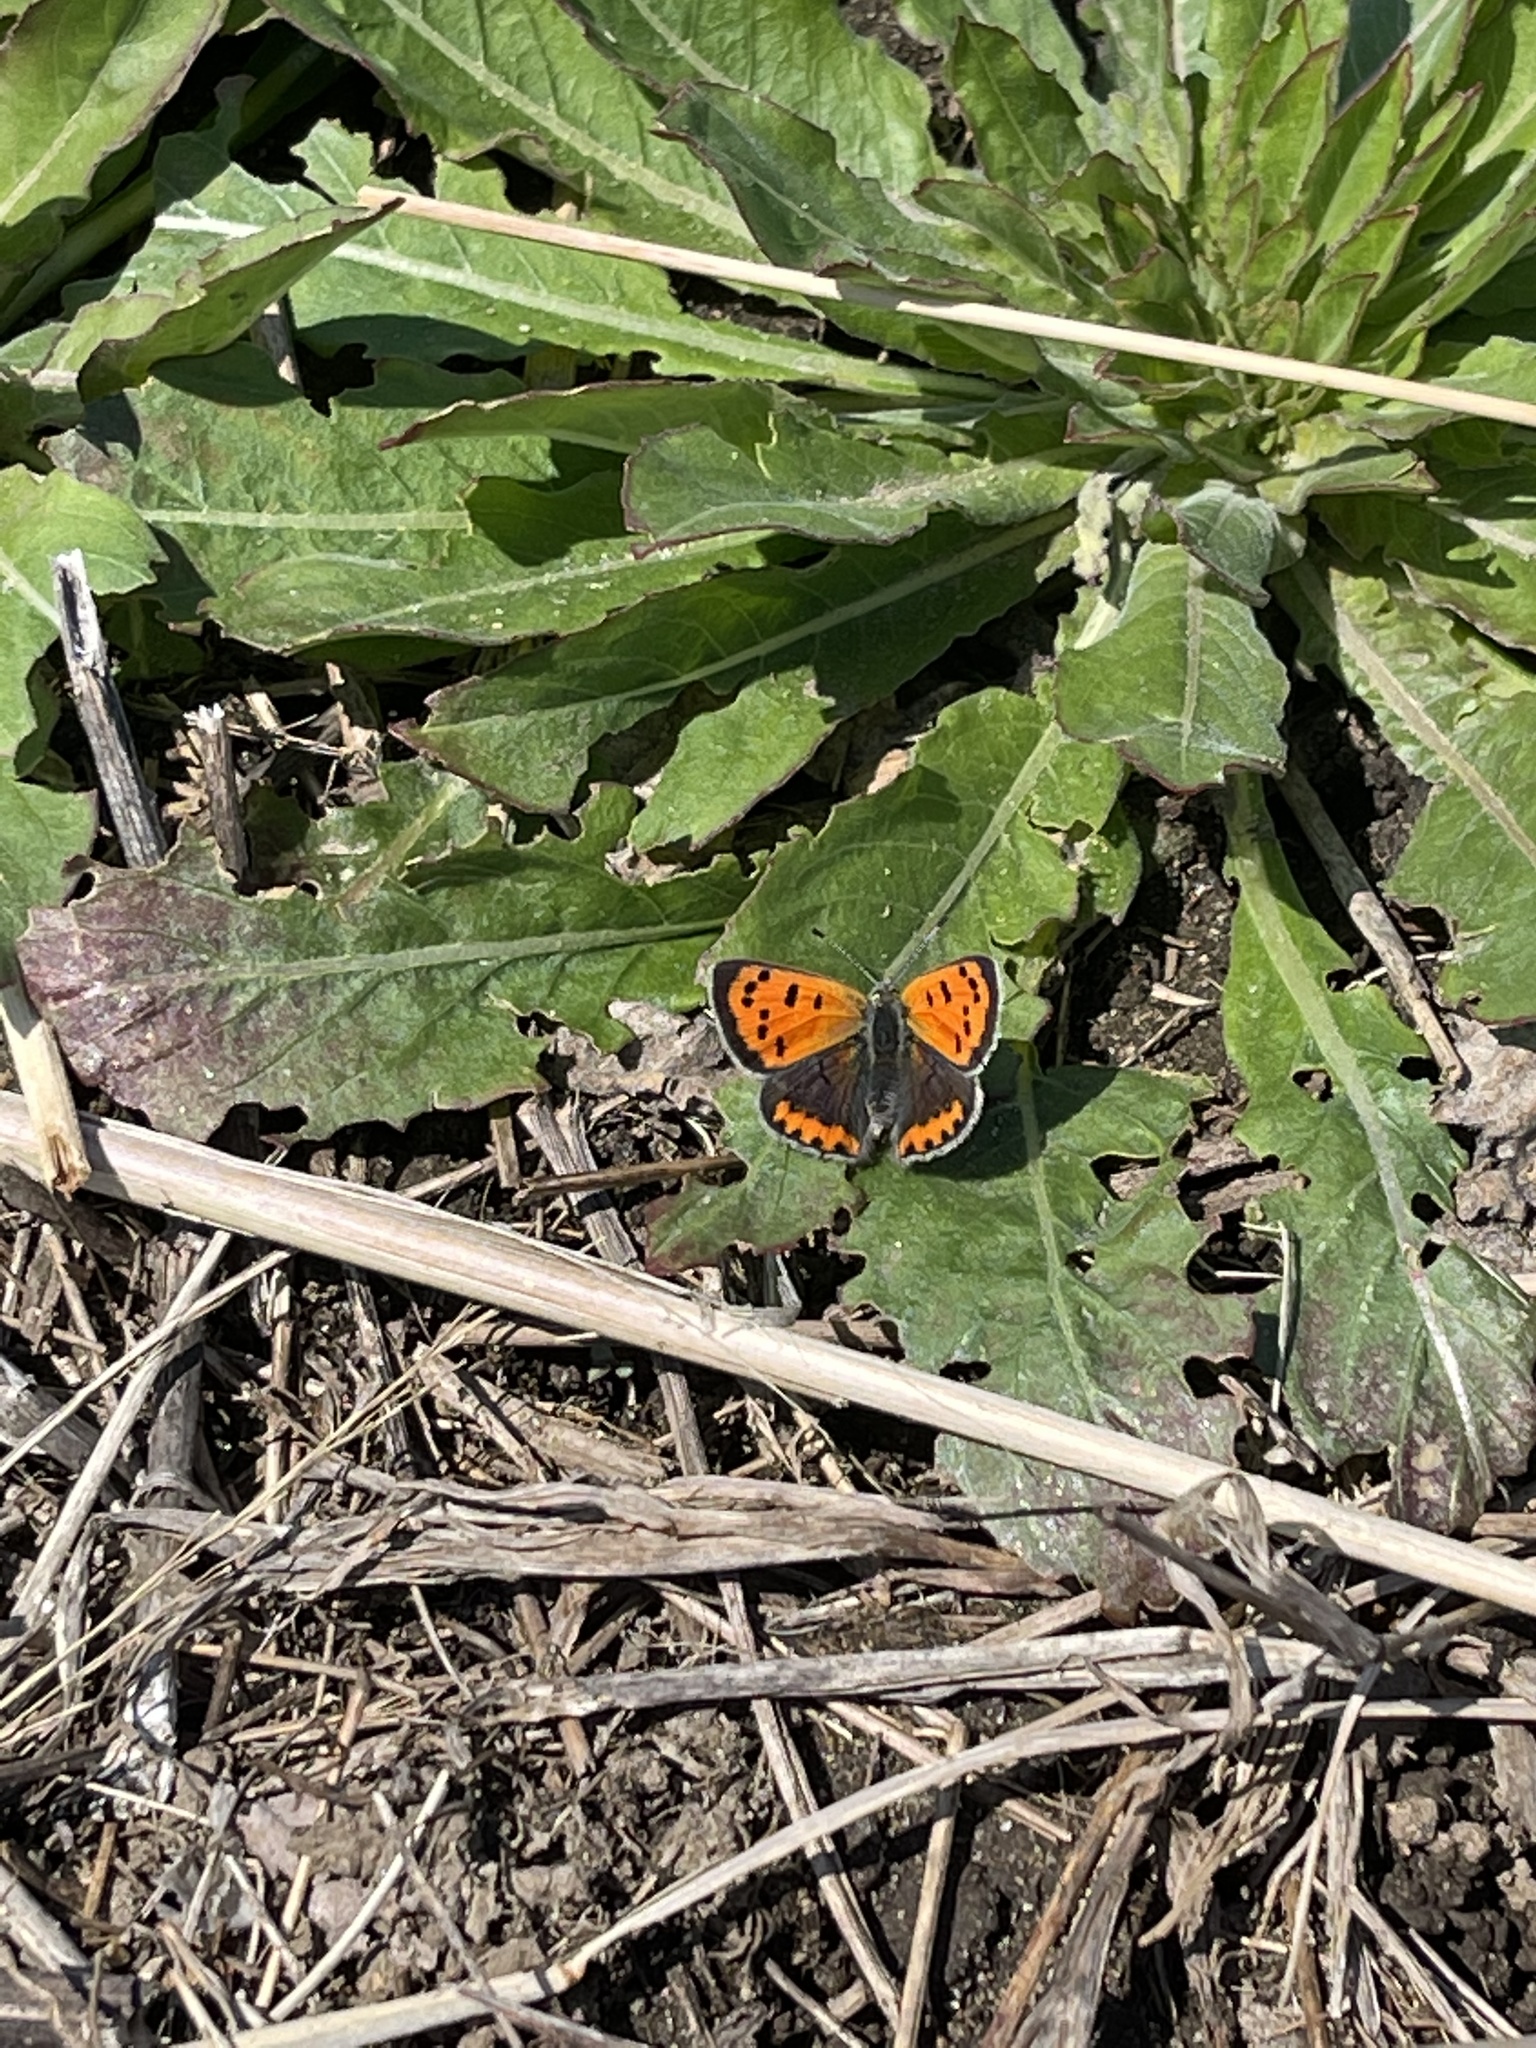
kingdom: Animalia
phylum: Arthropoda
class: Insecta
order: Lepidoptera
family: Lycaenidae
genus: Lycaena
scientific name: Lycaena hypophlaeas
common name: American copper
